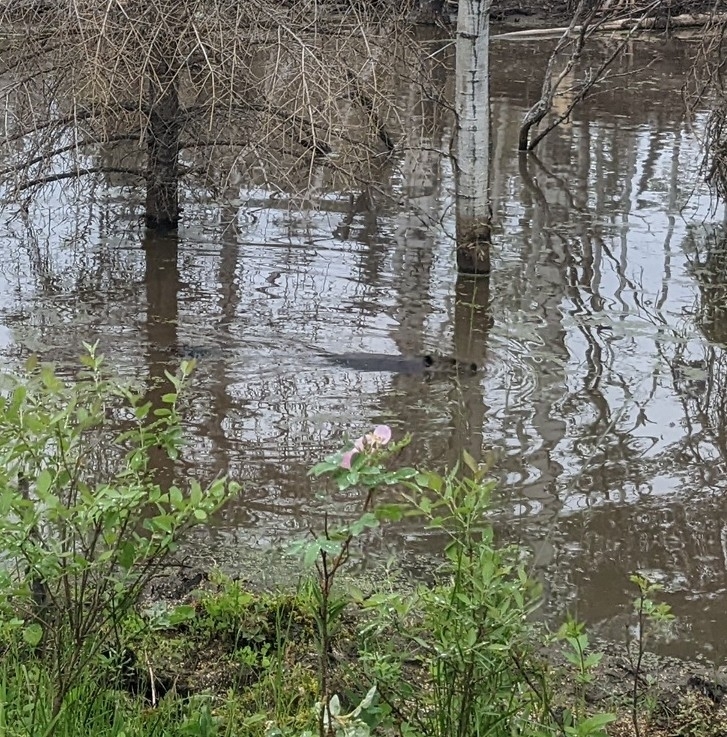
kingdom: Animalia
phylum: Chordata
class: Mammalia
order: Rodentia
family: Castoridae
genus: Castor
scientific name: Castor canadensis
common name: American beaver
